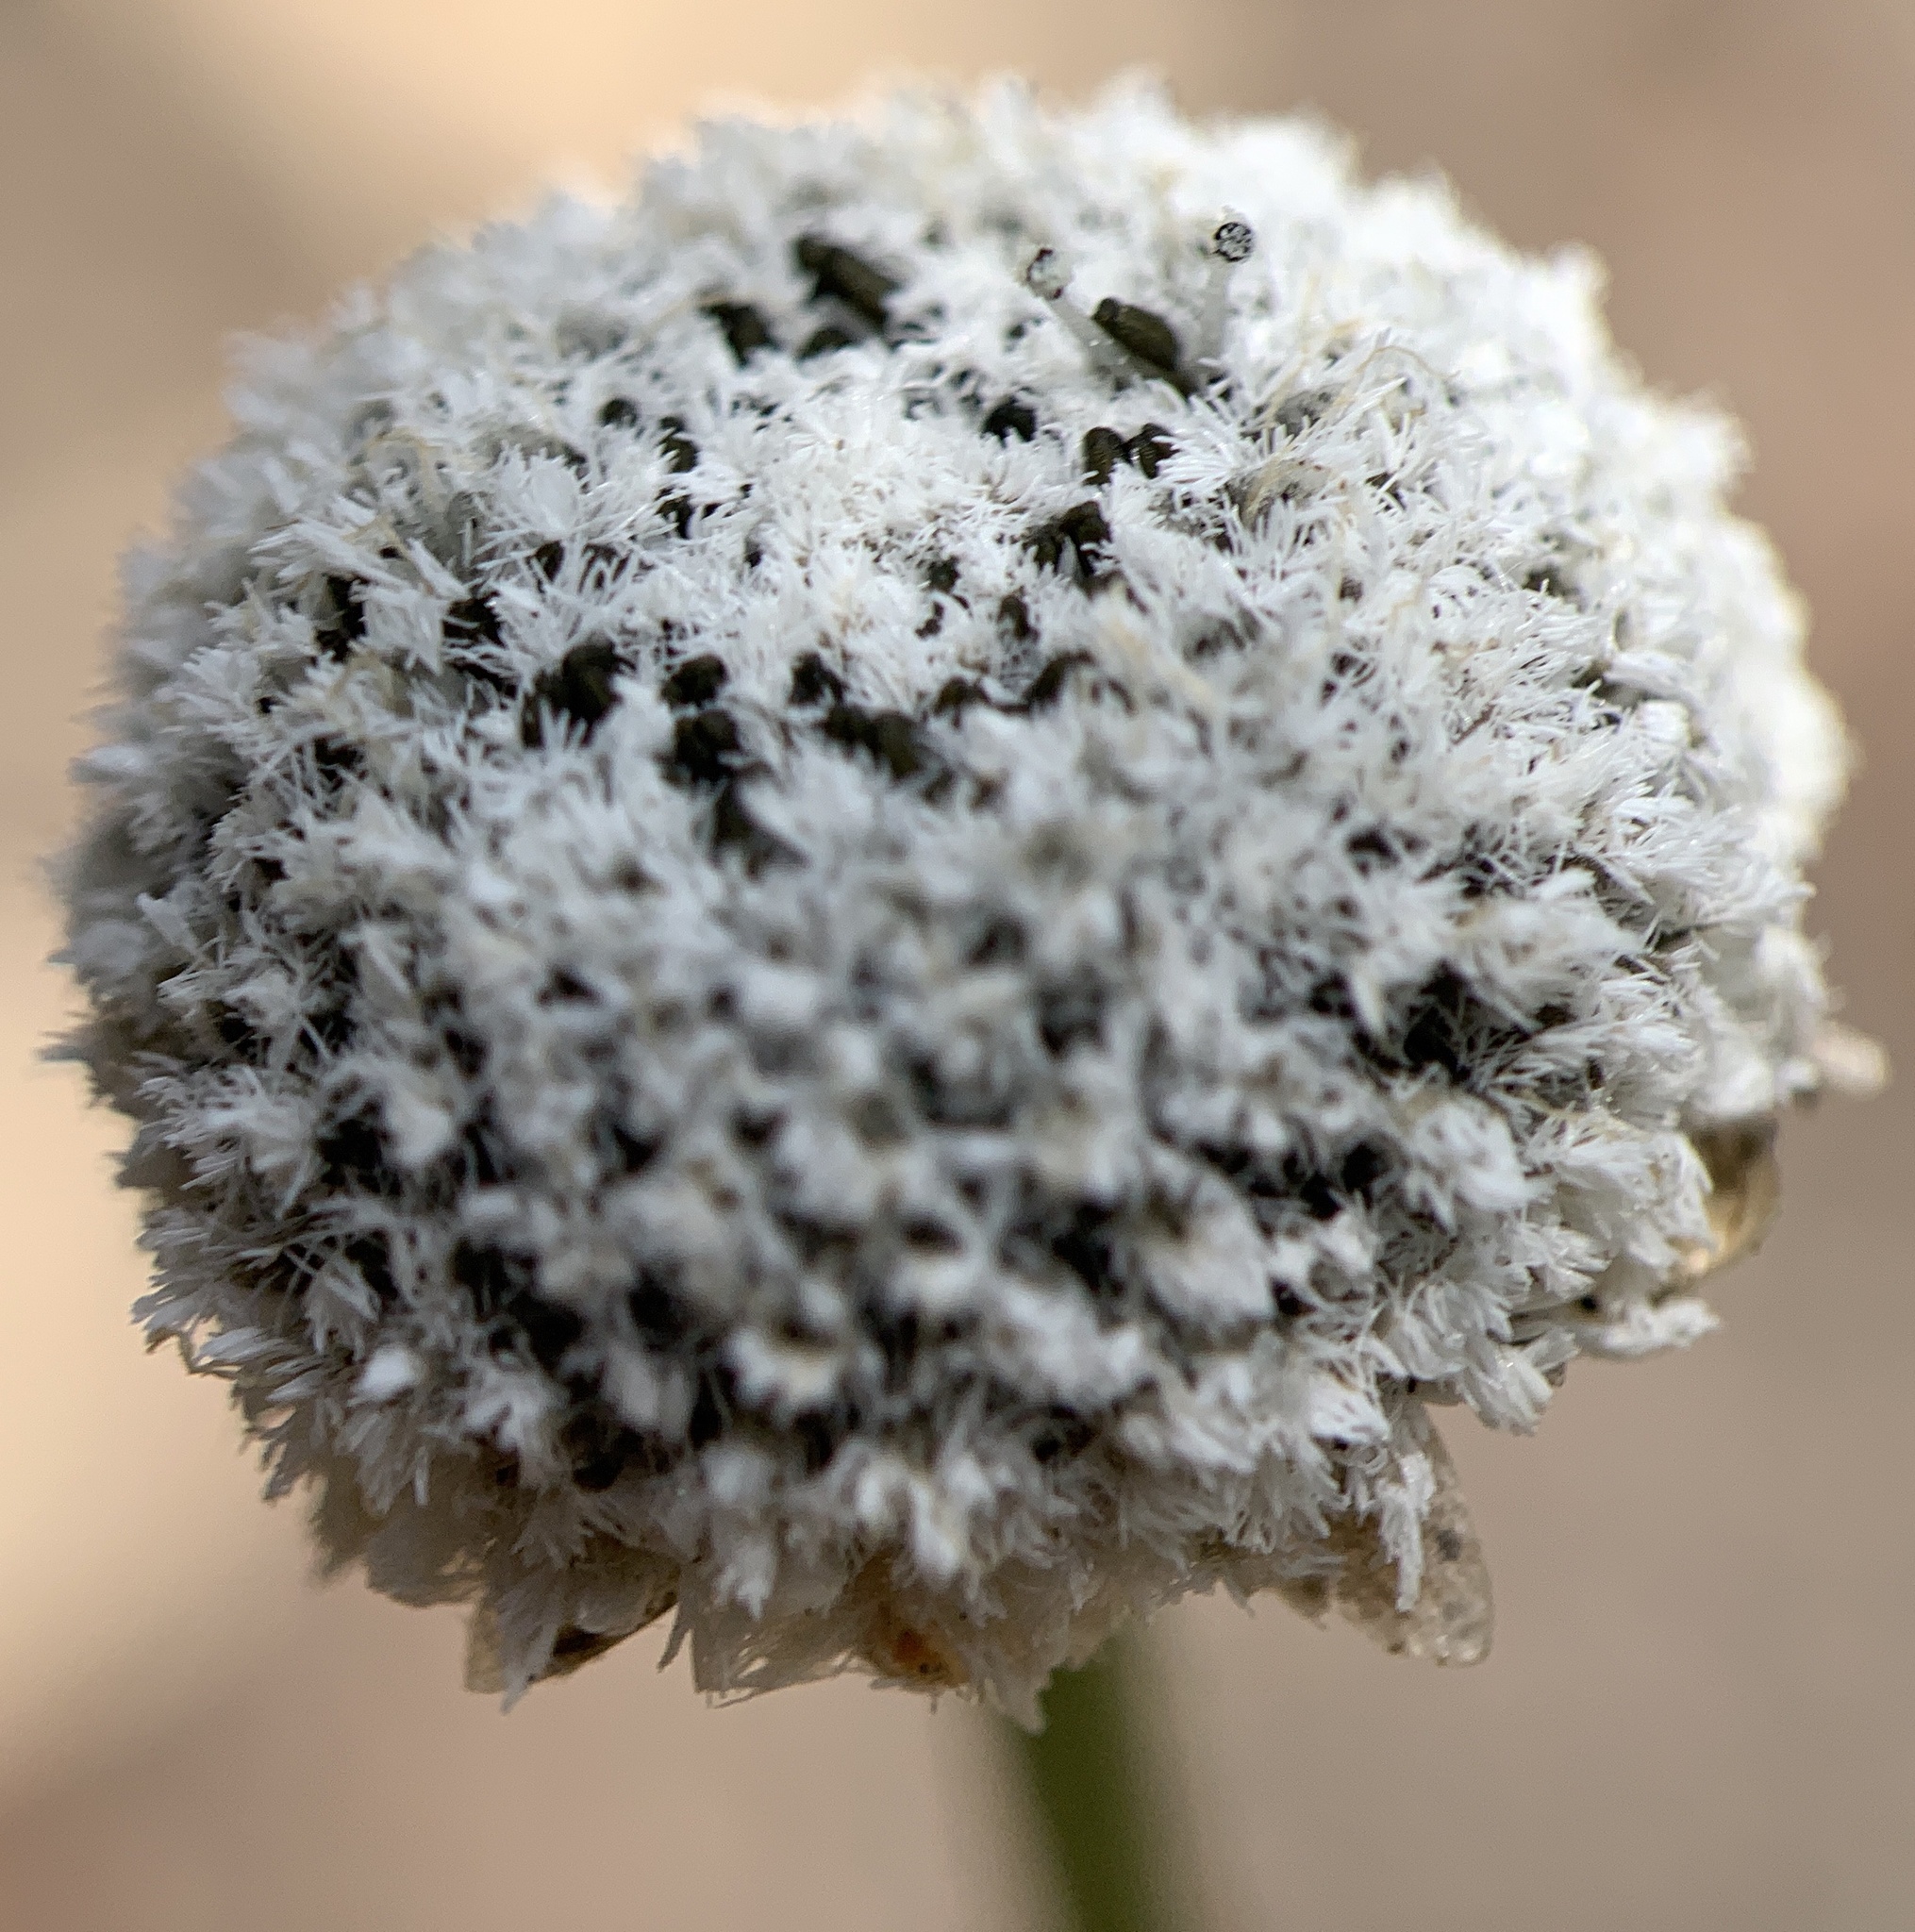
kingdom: Plantae
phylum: Tracheophyta
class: Liliopsida
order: Poales
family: Eriocaulaceae
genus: Eriocaulon
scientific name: Eriocaulon compressum
